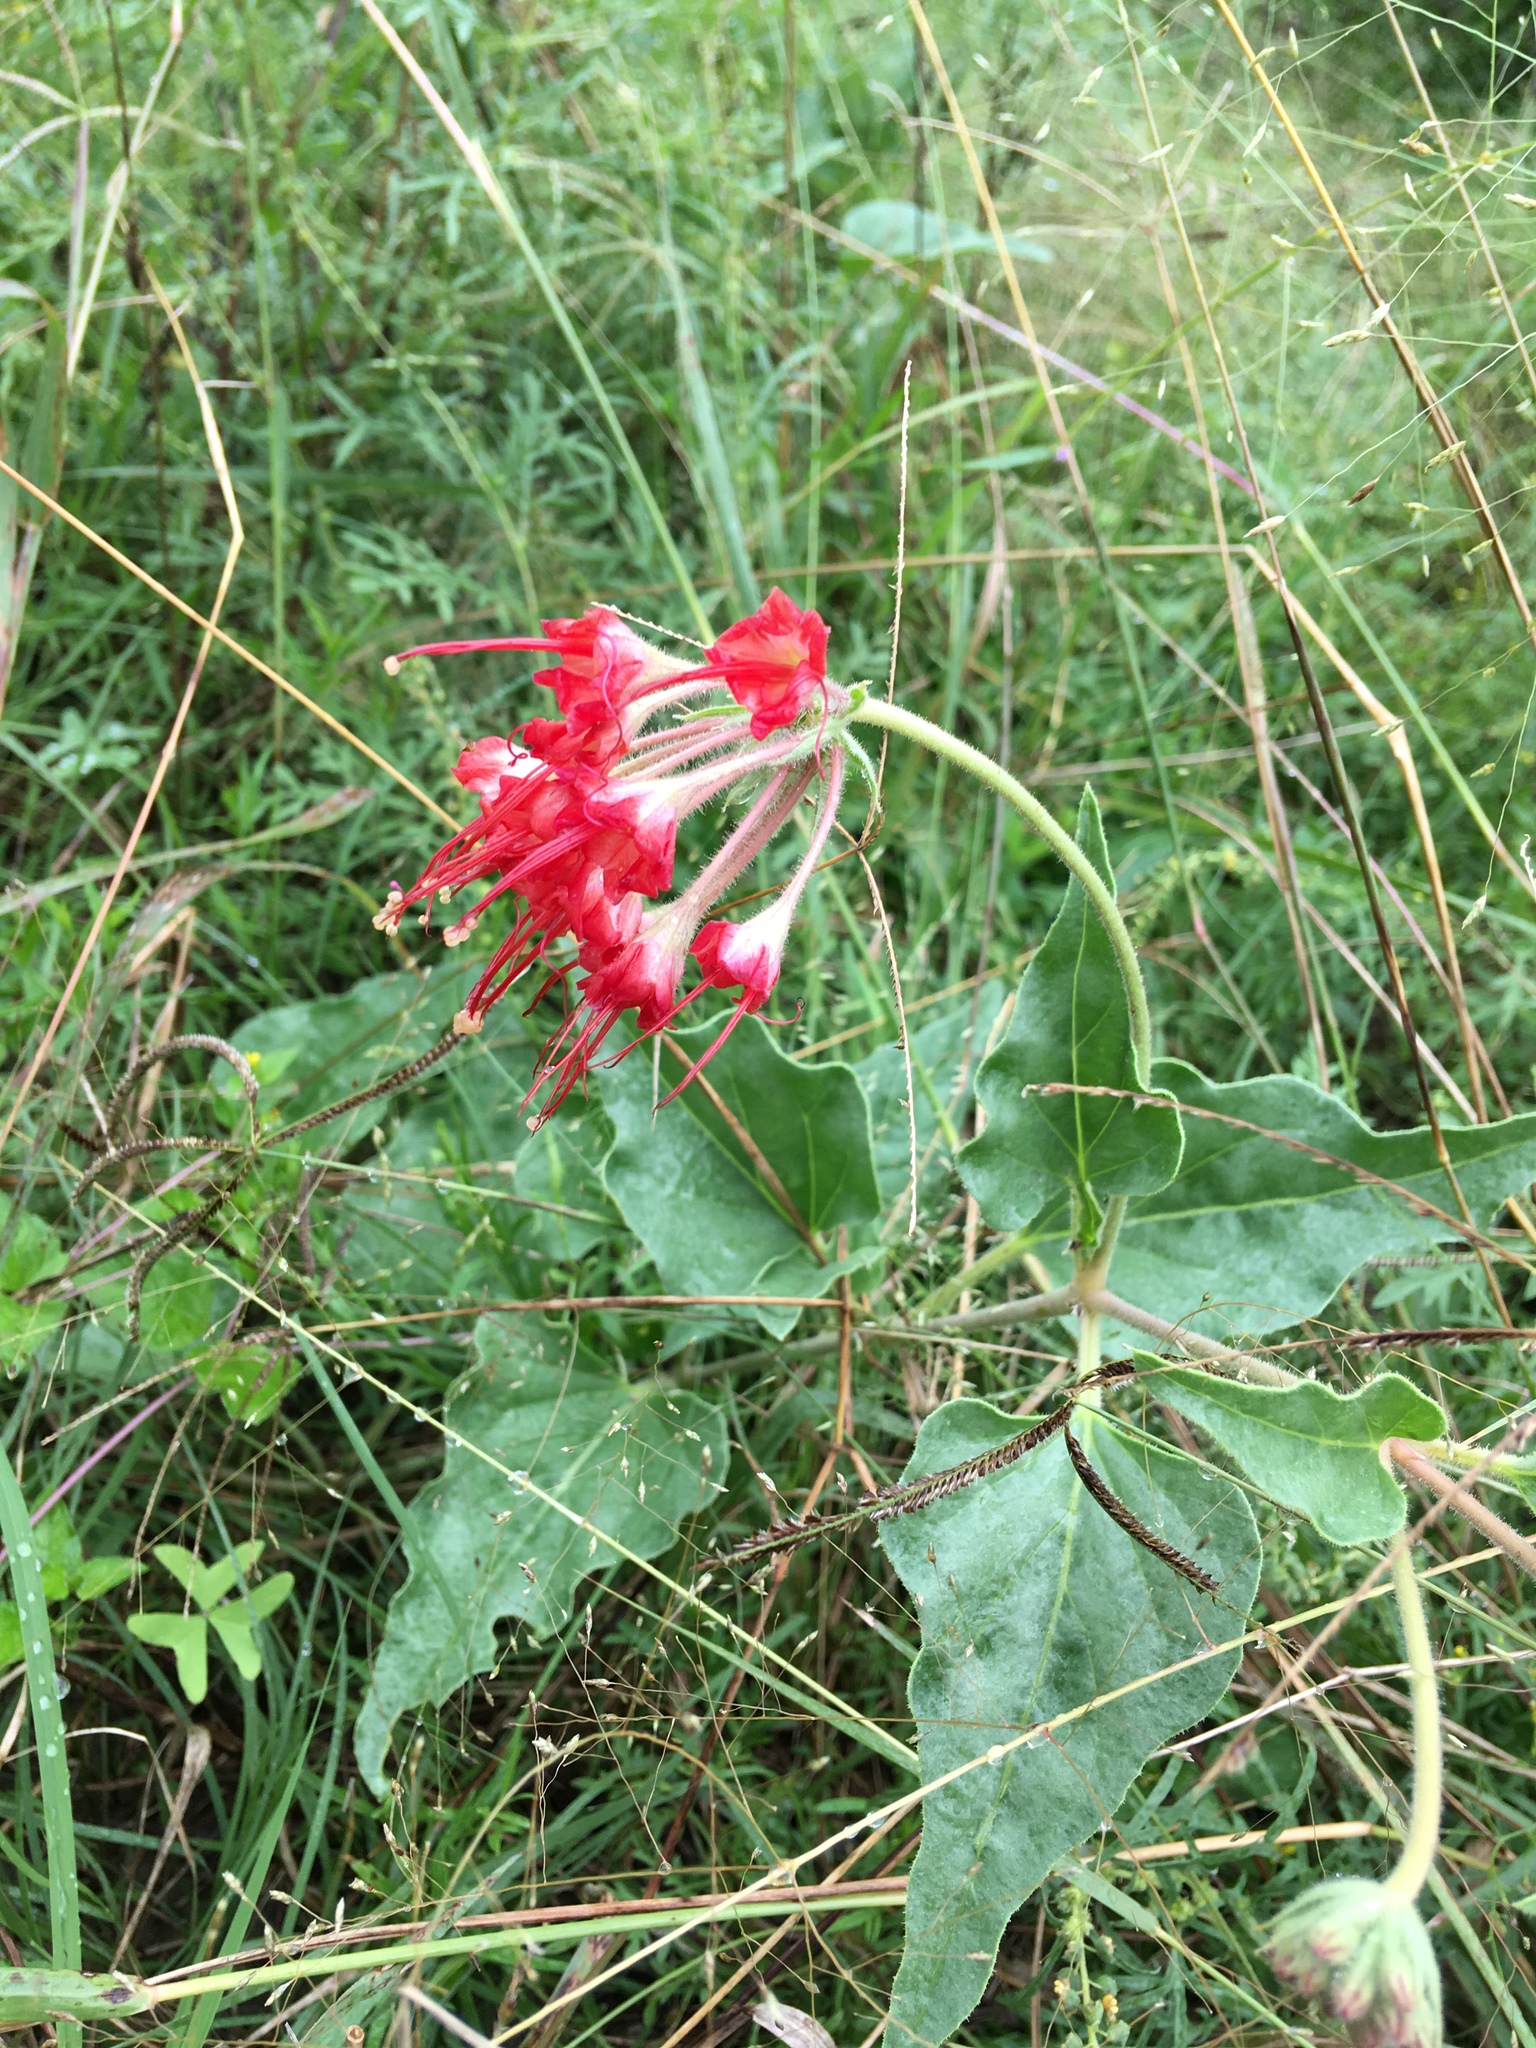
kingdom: Plantae
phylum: Tracheophyta
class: Magnoliopsida
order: Caryophyllales
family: Nyctaginaceae
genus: Nyctaginia
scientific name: Nyctaginia capitata
